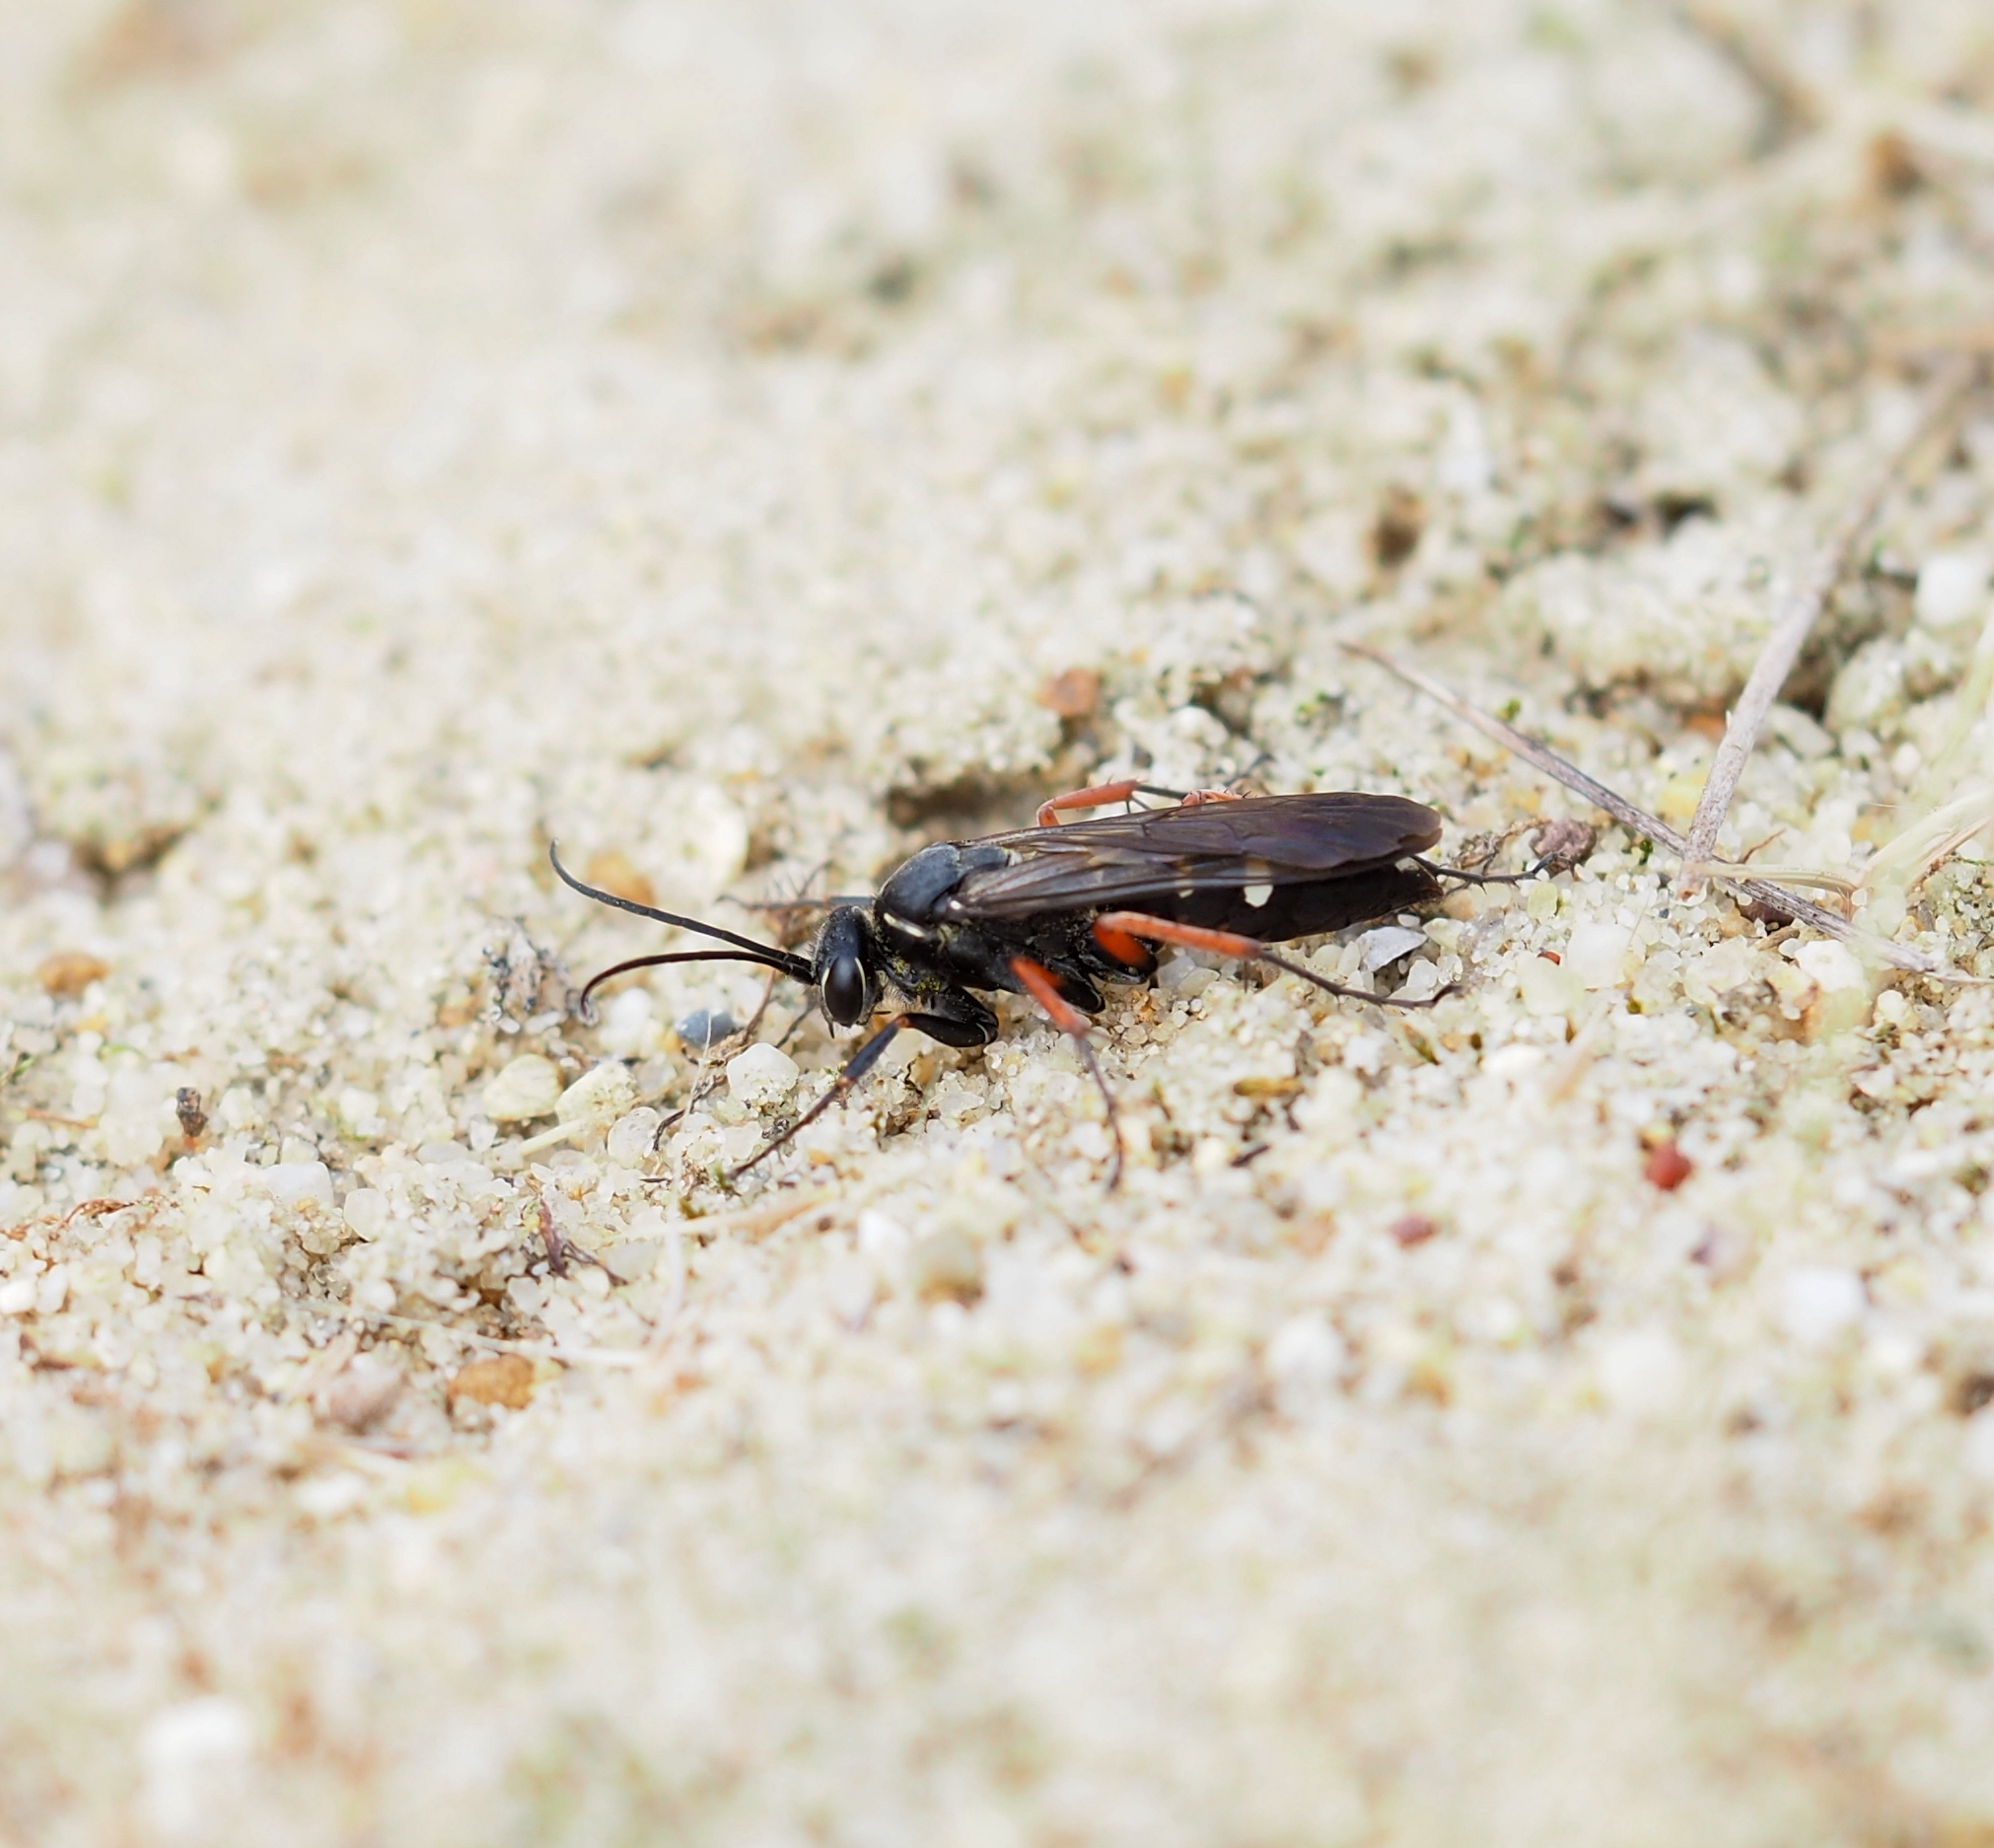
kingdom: Animalia
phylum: Arthropoda
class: Insecta
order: Hymenoptera
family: Pompilidae
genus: Episyron
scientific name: Episyron rufipes
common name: Red legged spider wasp
